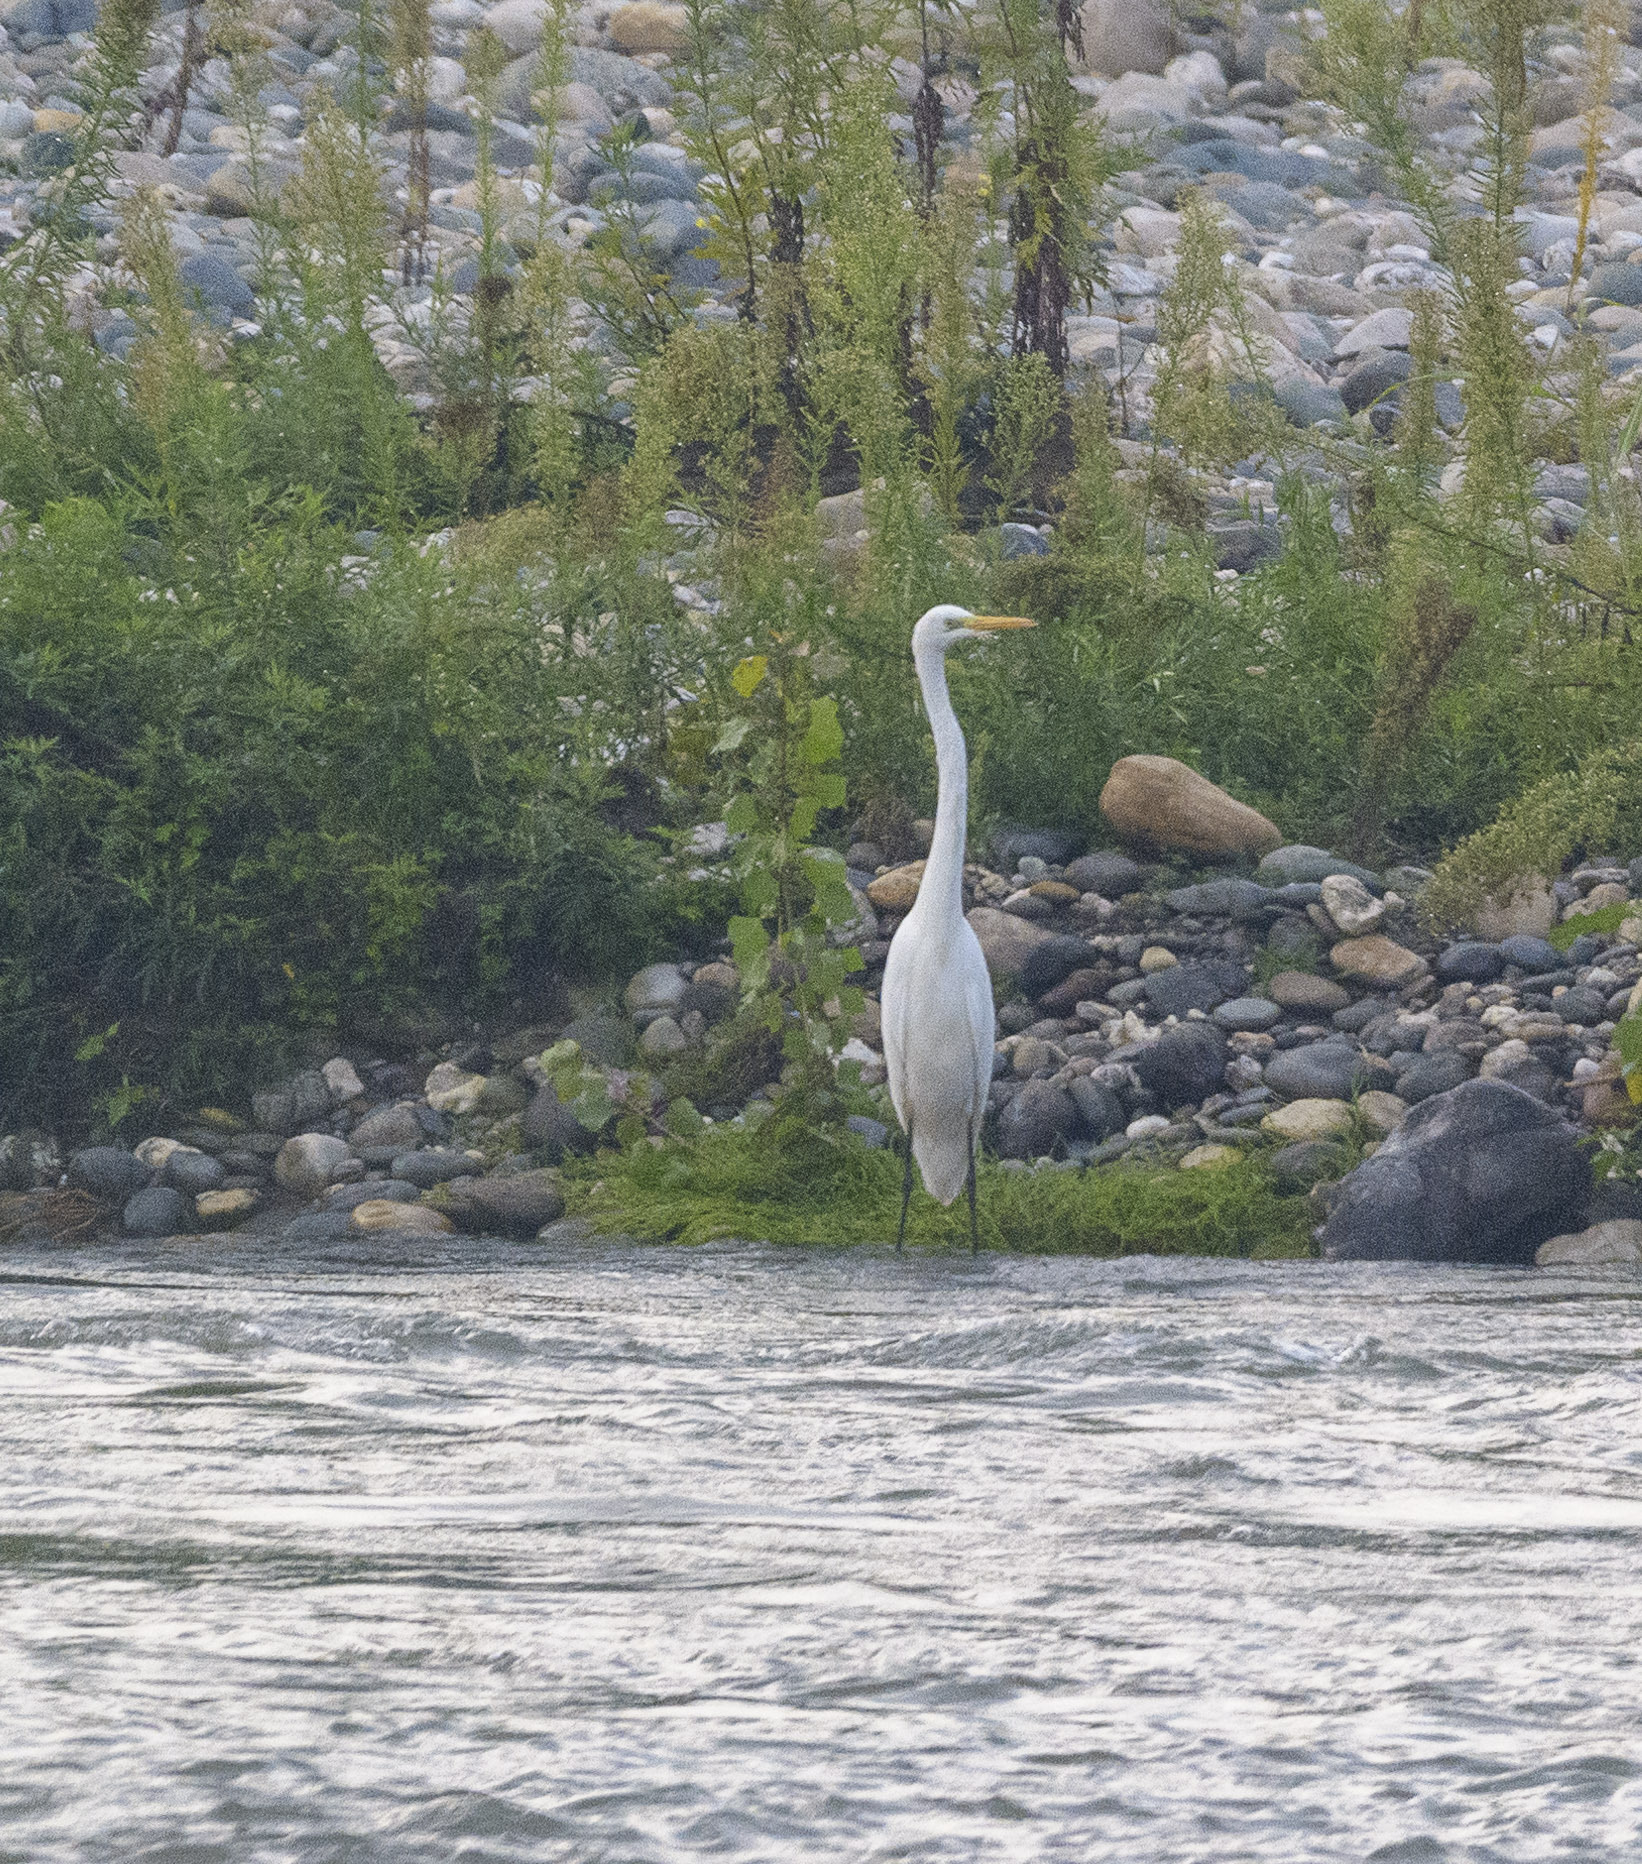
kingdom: Animalia
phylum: Chordata
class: Aves
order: Pelecaniformes
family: Ardeidae
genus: Ardea
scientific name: Ardea alba
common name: Great egret
